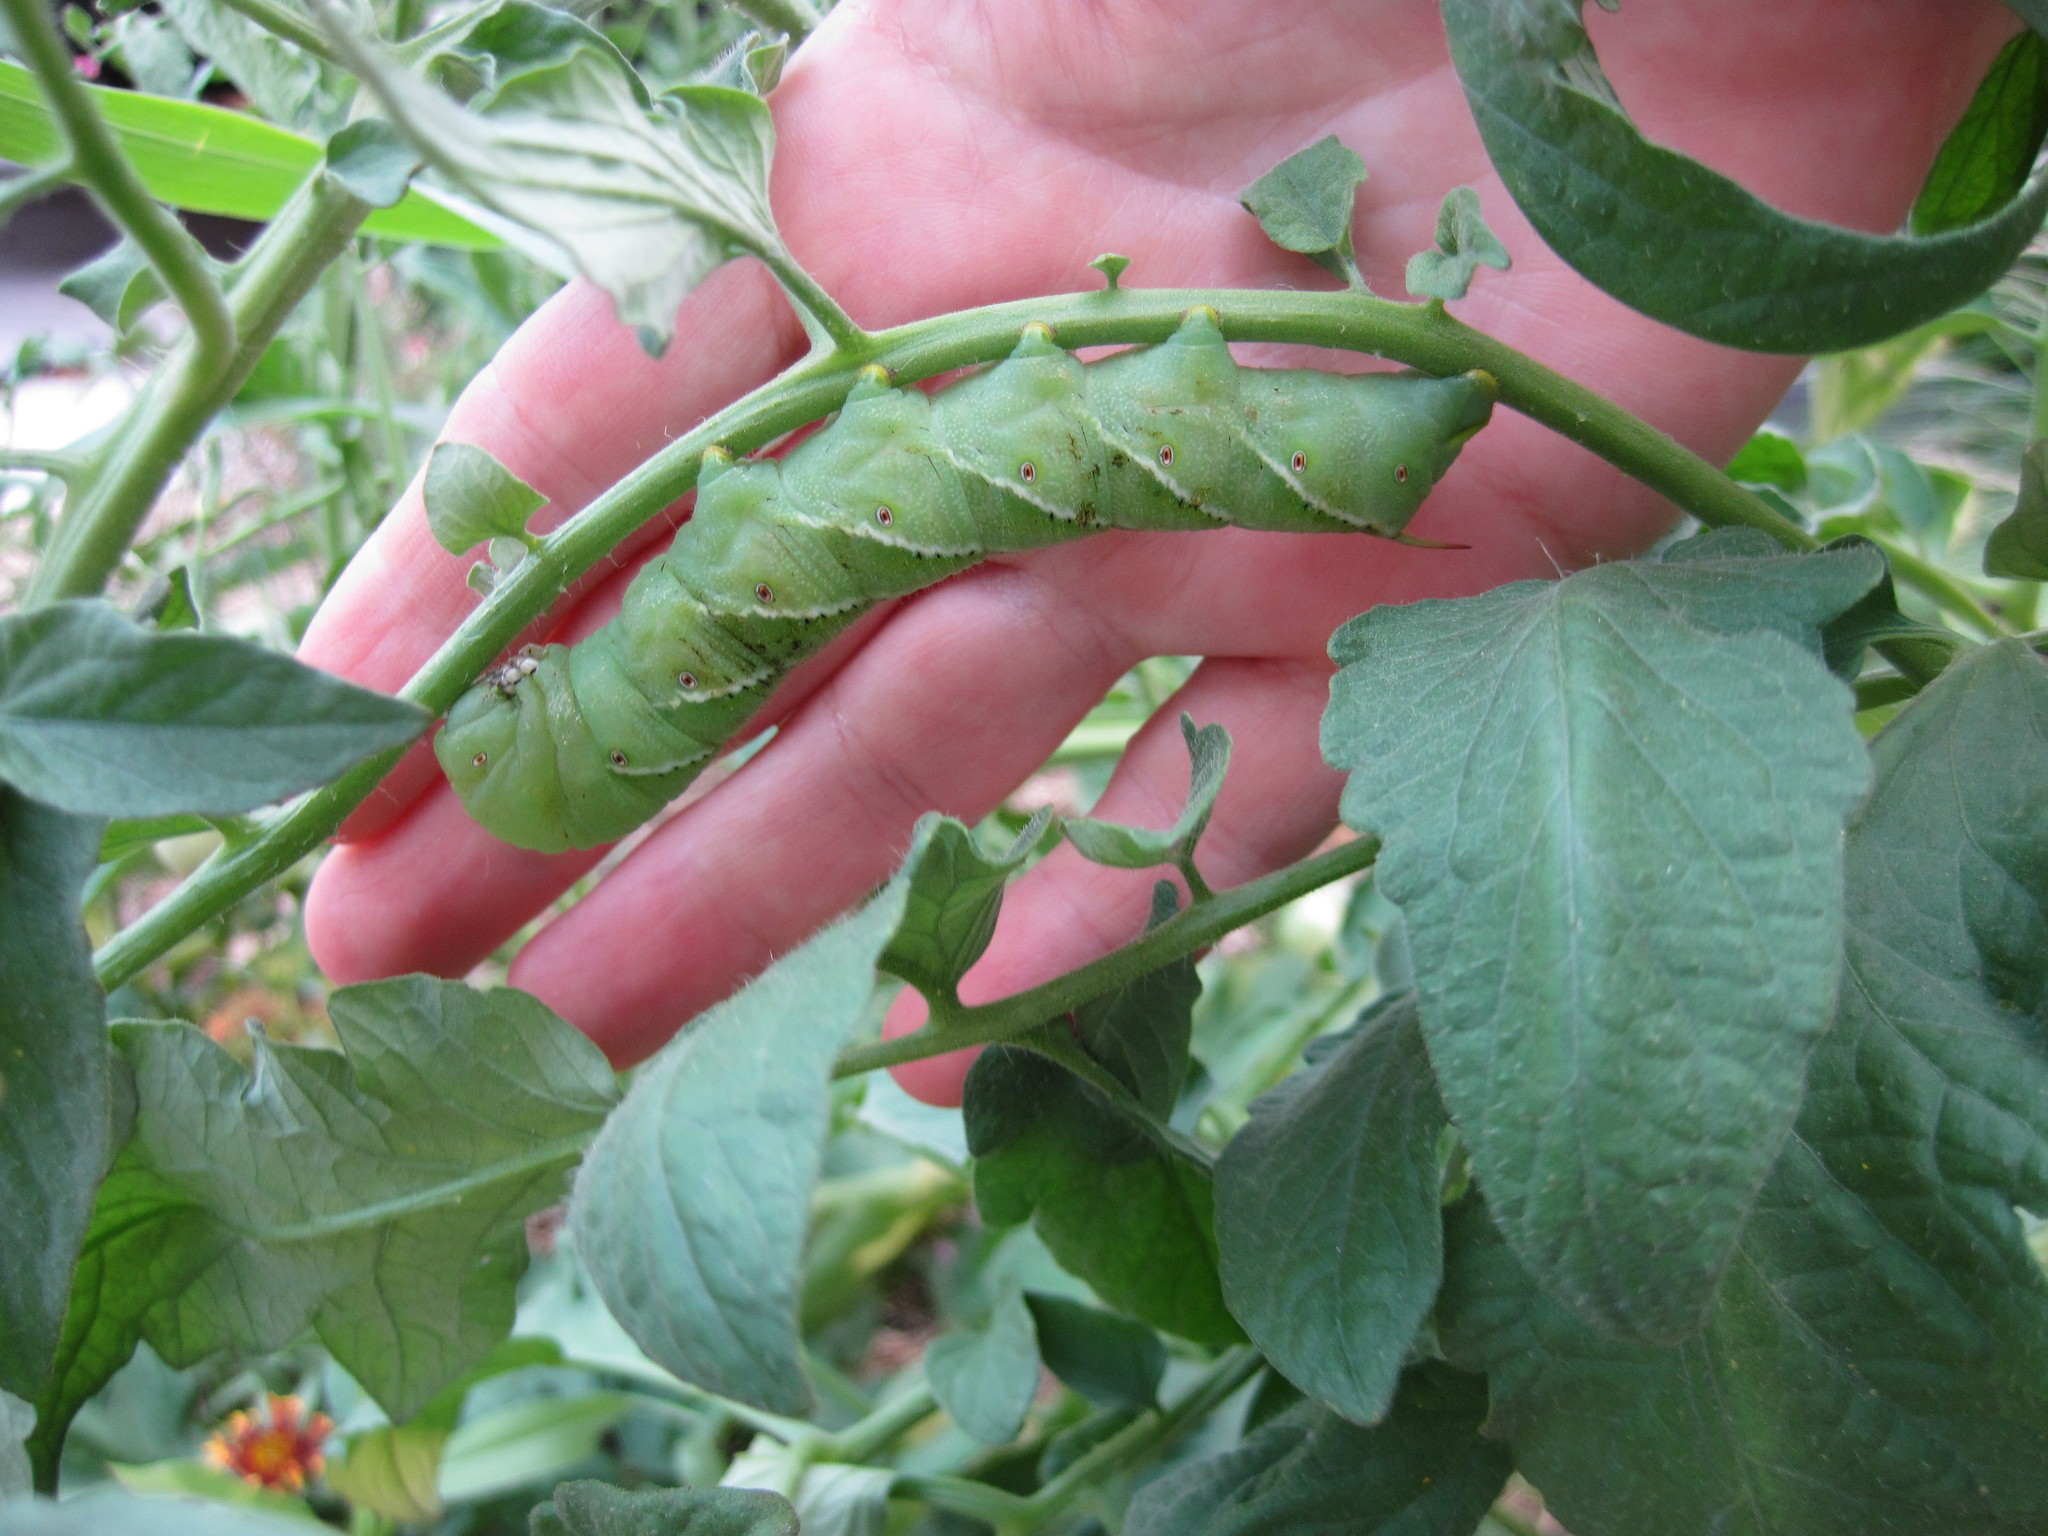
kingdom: Animalia
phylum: Arthropoda
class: Insecta
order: Lepidoptera
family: Sphingidae
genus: Manduca
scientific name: Manduca sexta
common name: Carolina sphinx
